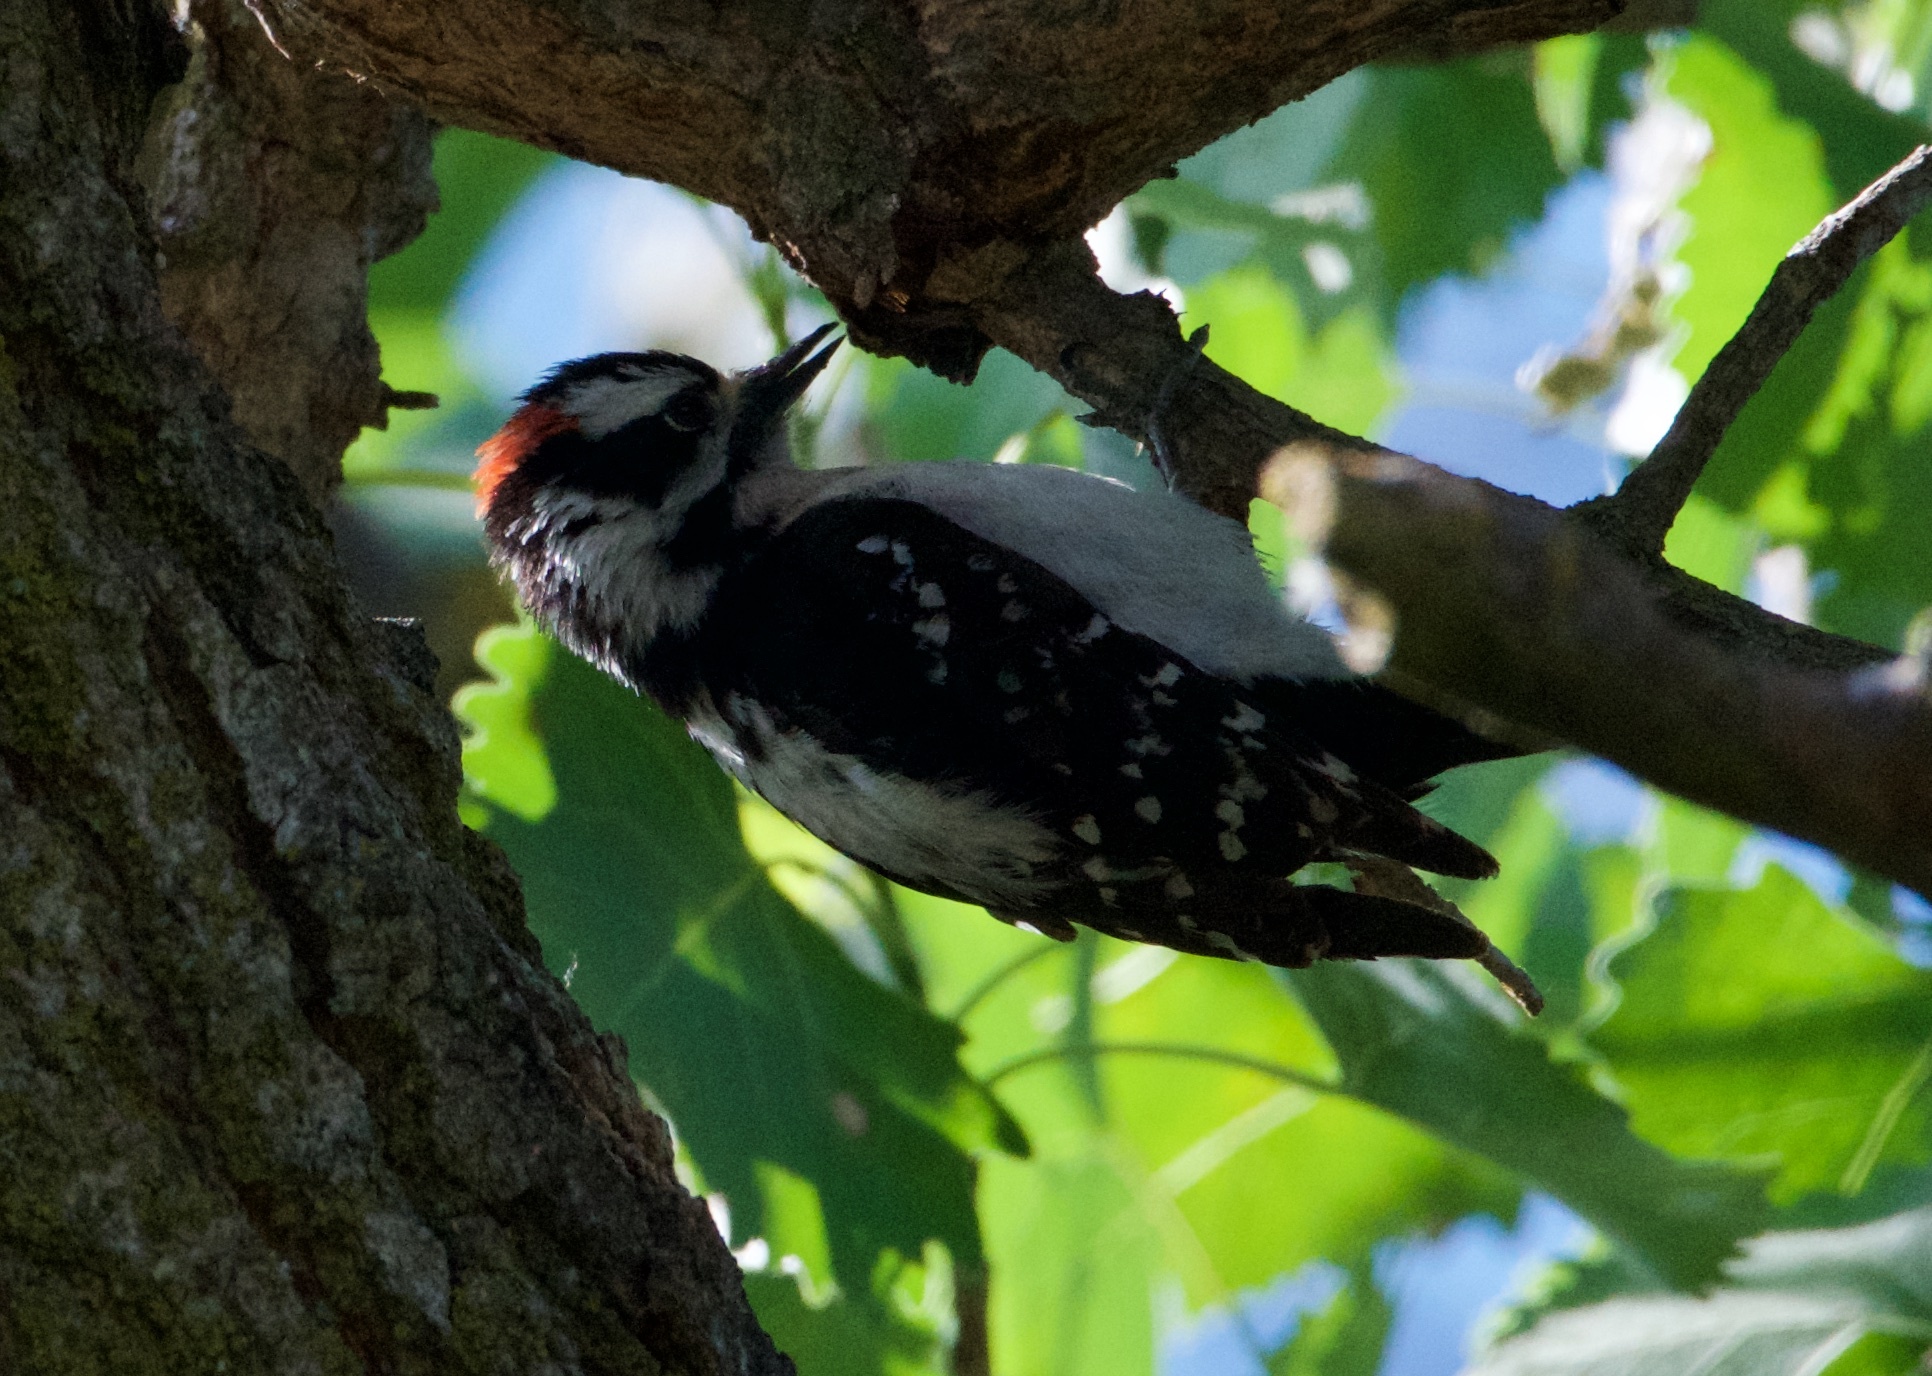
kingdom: Animalia
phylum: Chordata
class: Aves
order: Piciformes
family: Picidae
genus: Dryobates
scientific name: Dryobates pubescens
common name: Downy woodpecker
